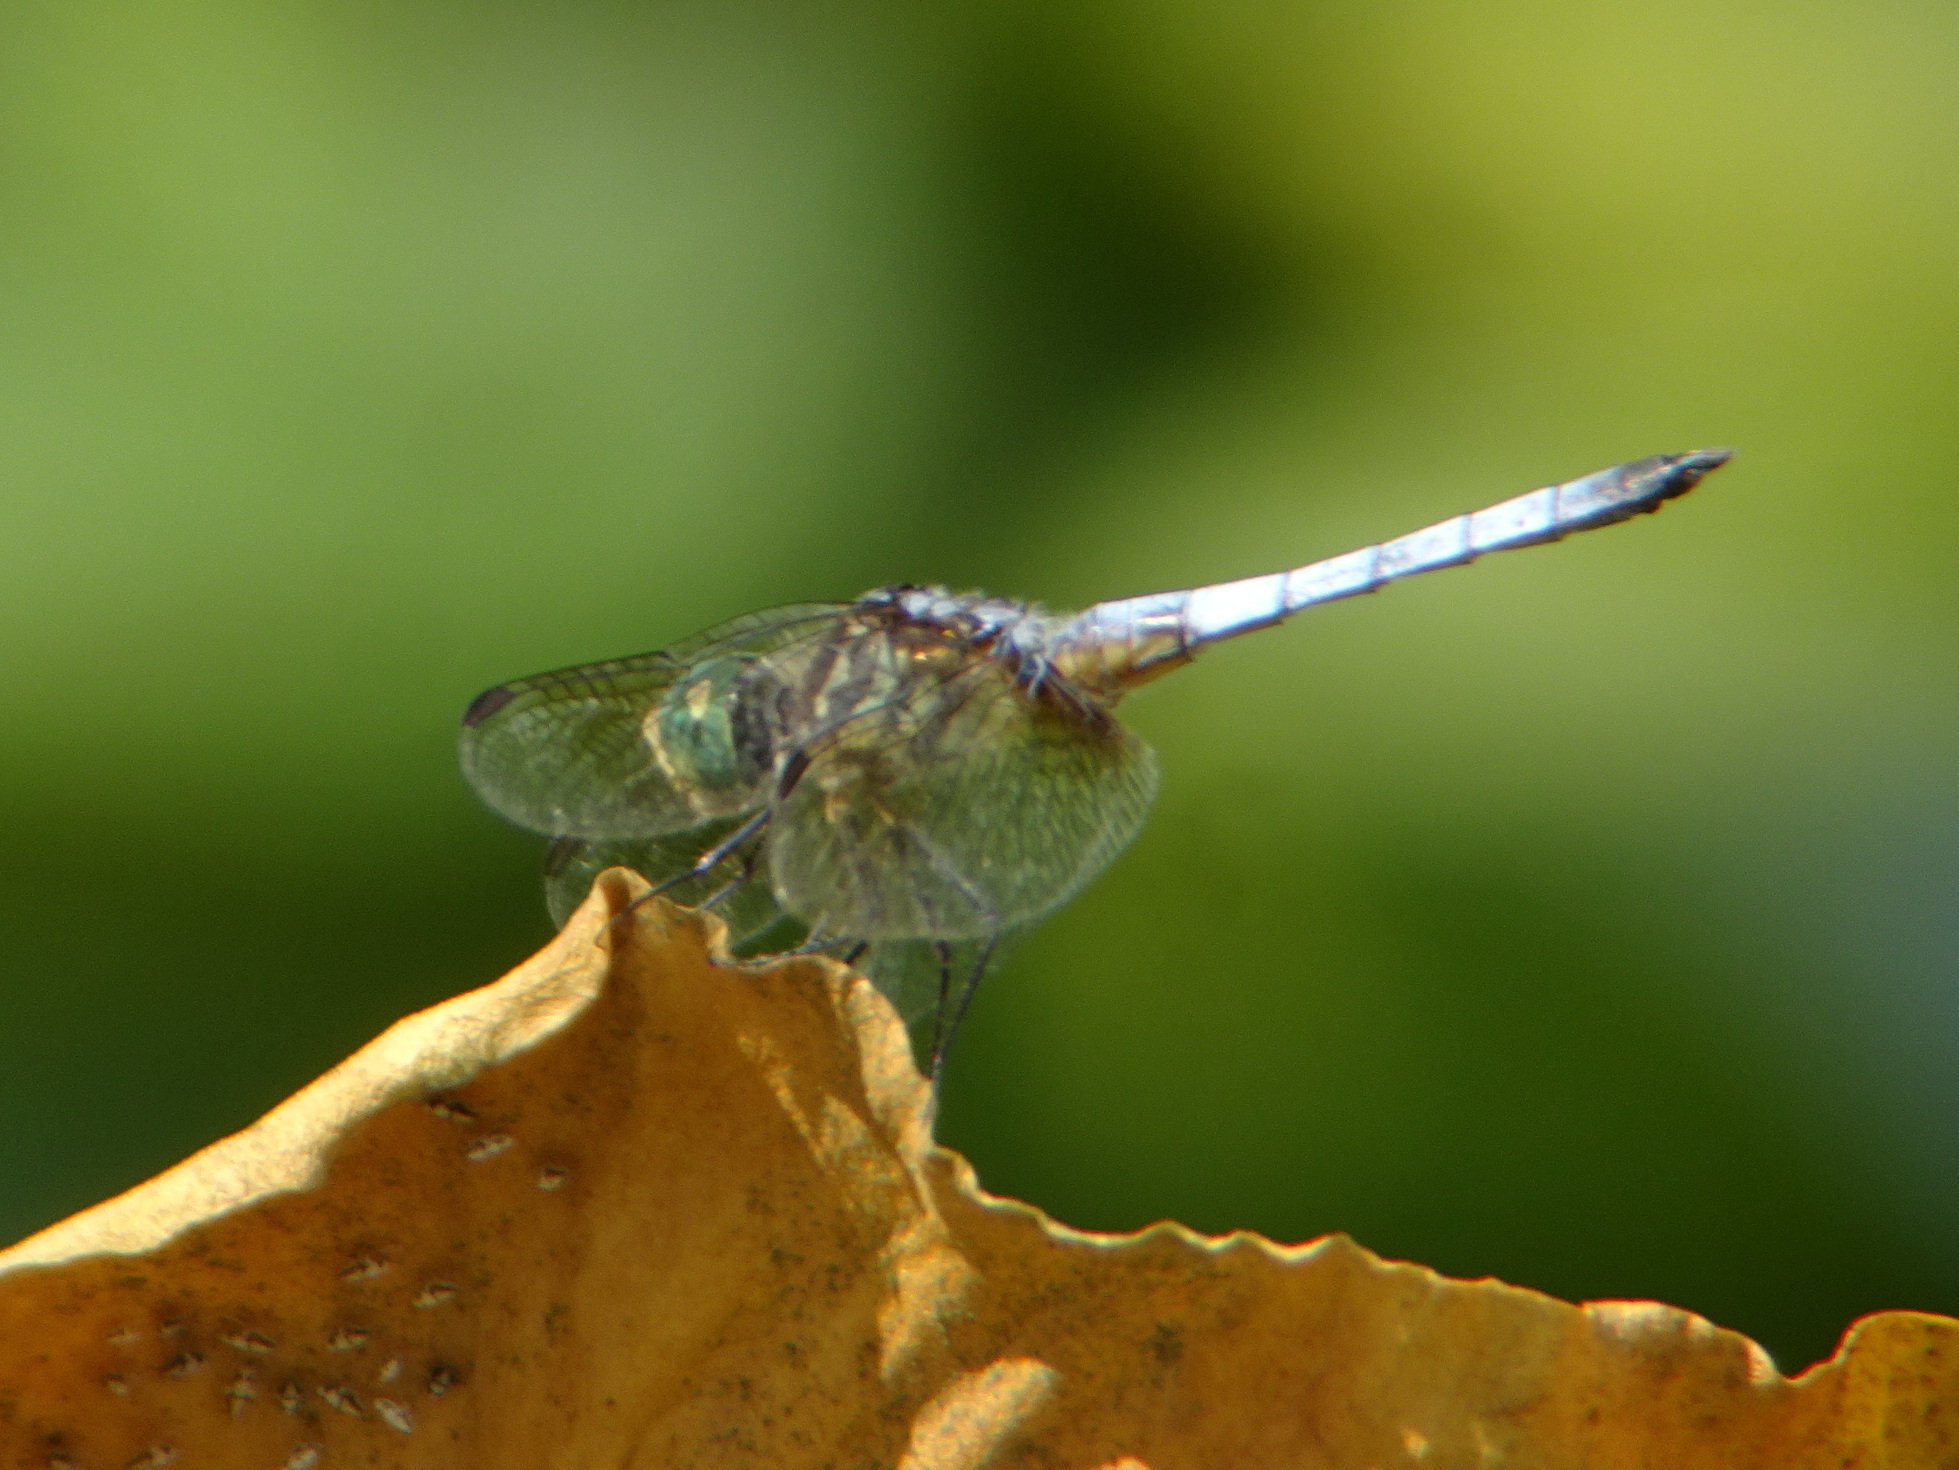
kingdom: Animalia
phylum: Arthropoda
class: Insecta
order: Odonata
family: Libellulidae
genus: Pachydiplax
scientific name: Pachydiplax longipennis
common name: Blue dasher
